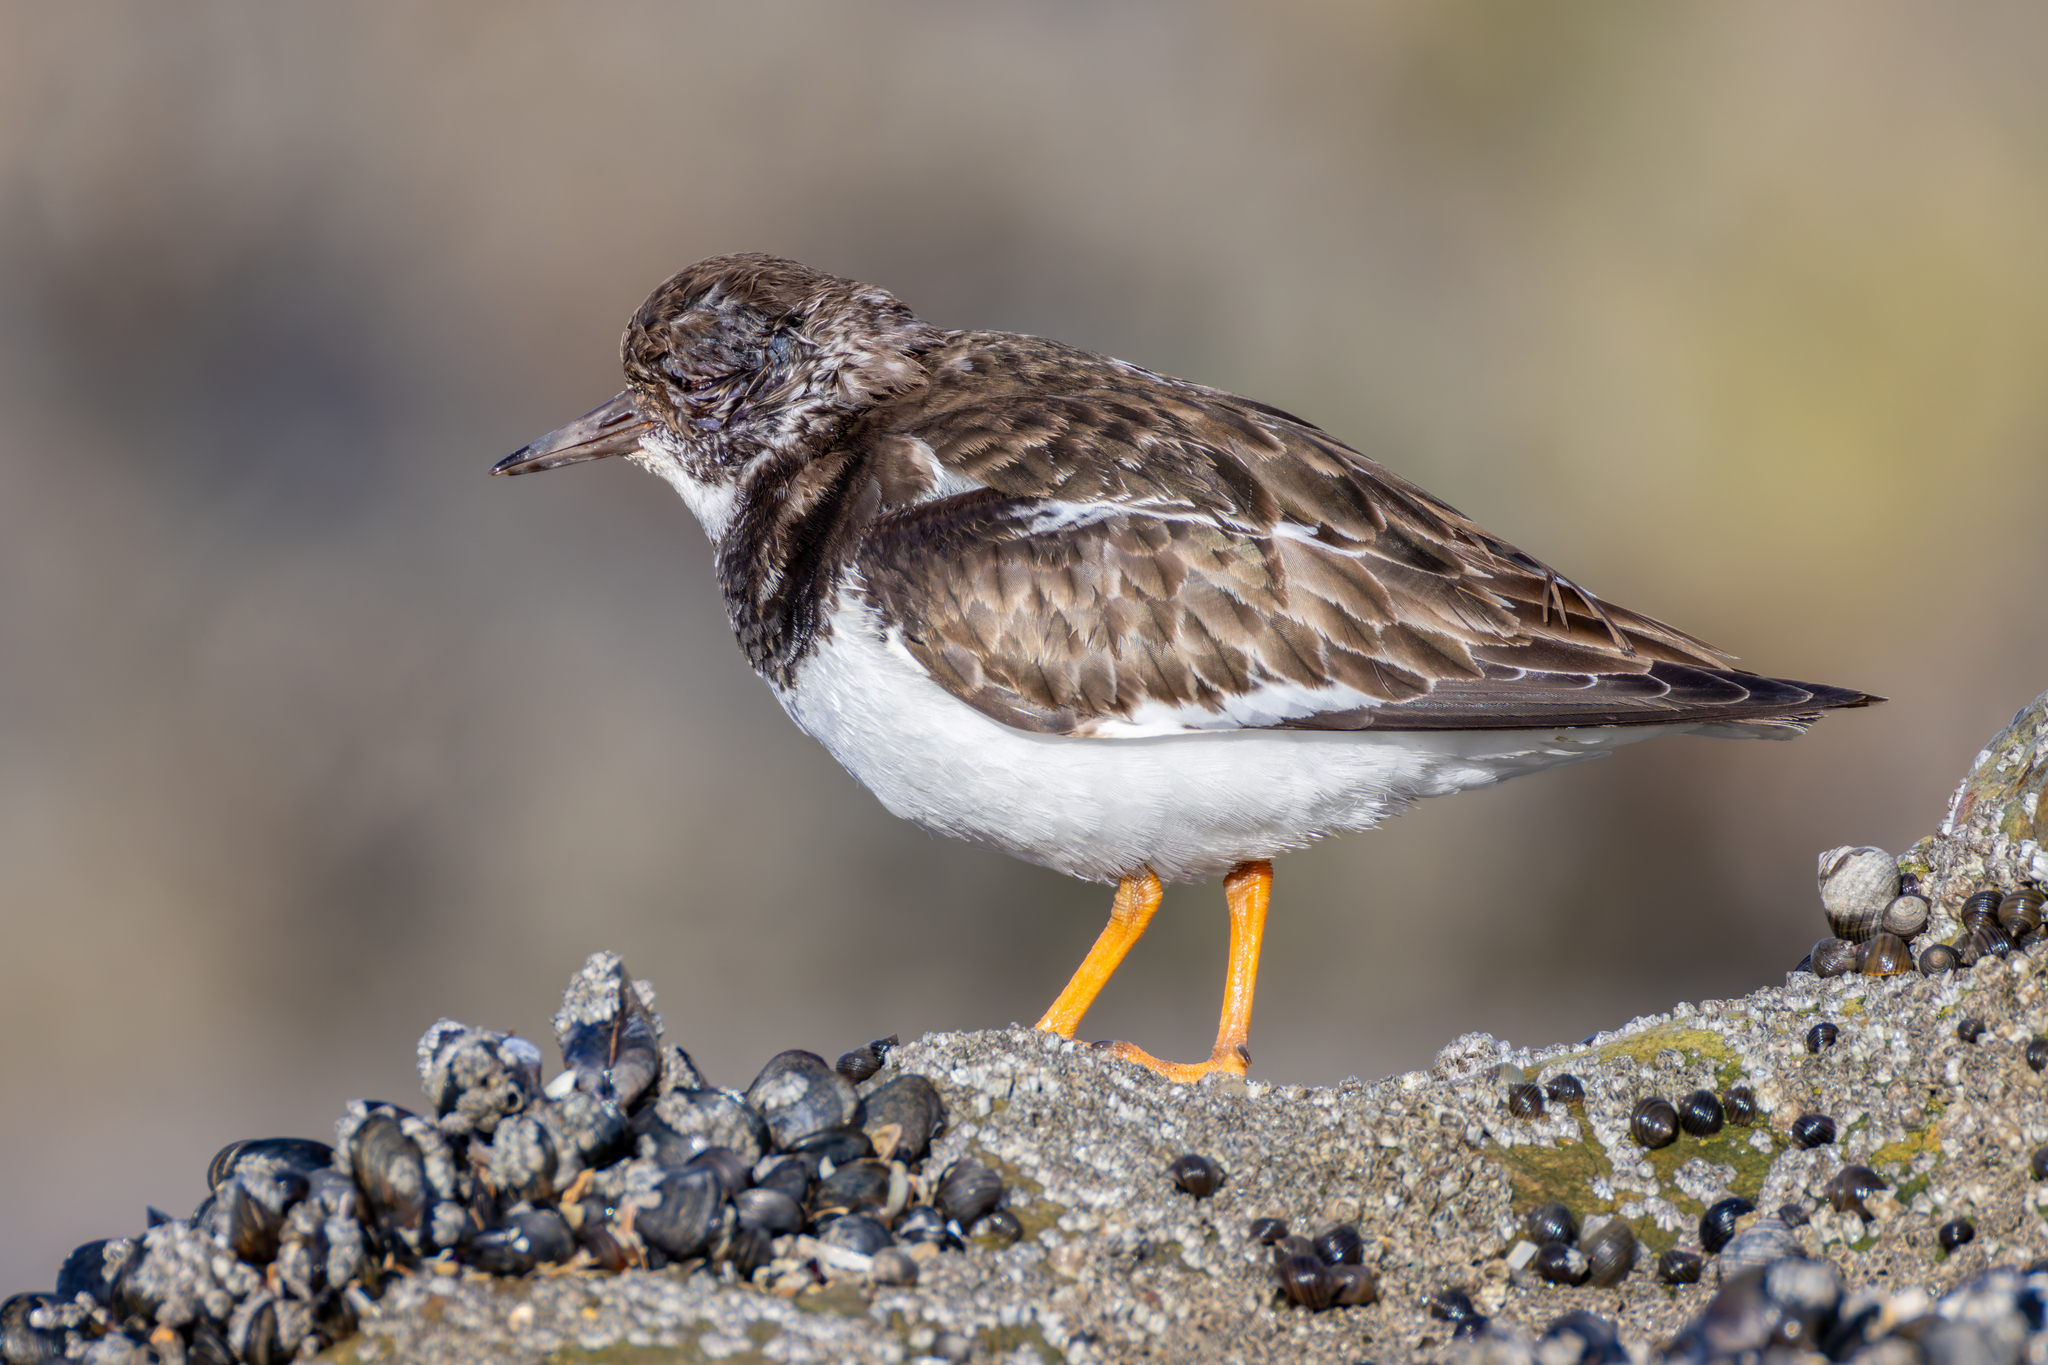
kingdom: Animalia
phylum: Chordata
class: Aves
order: Charadriiformes
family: Scolopacidae
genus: Arenaria
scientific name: Arenaria interpres
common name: Ruddy turnstone
